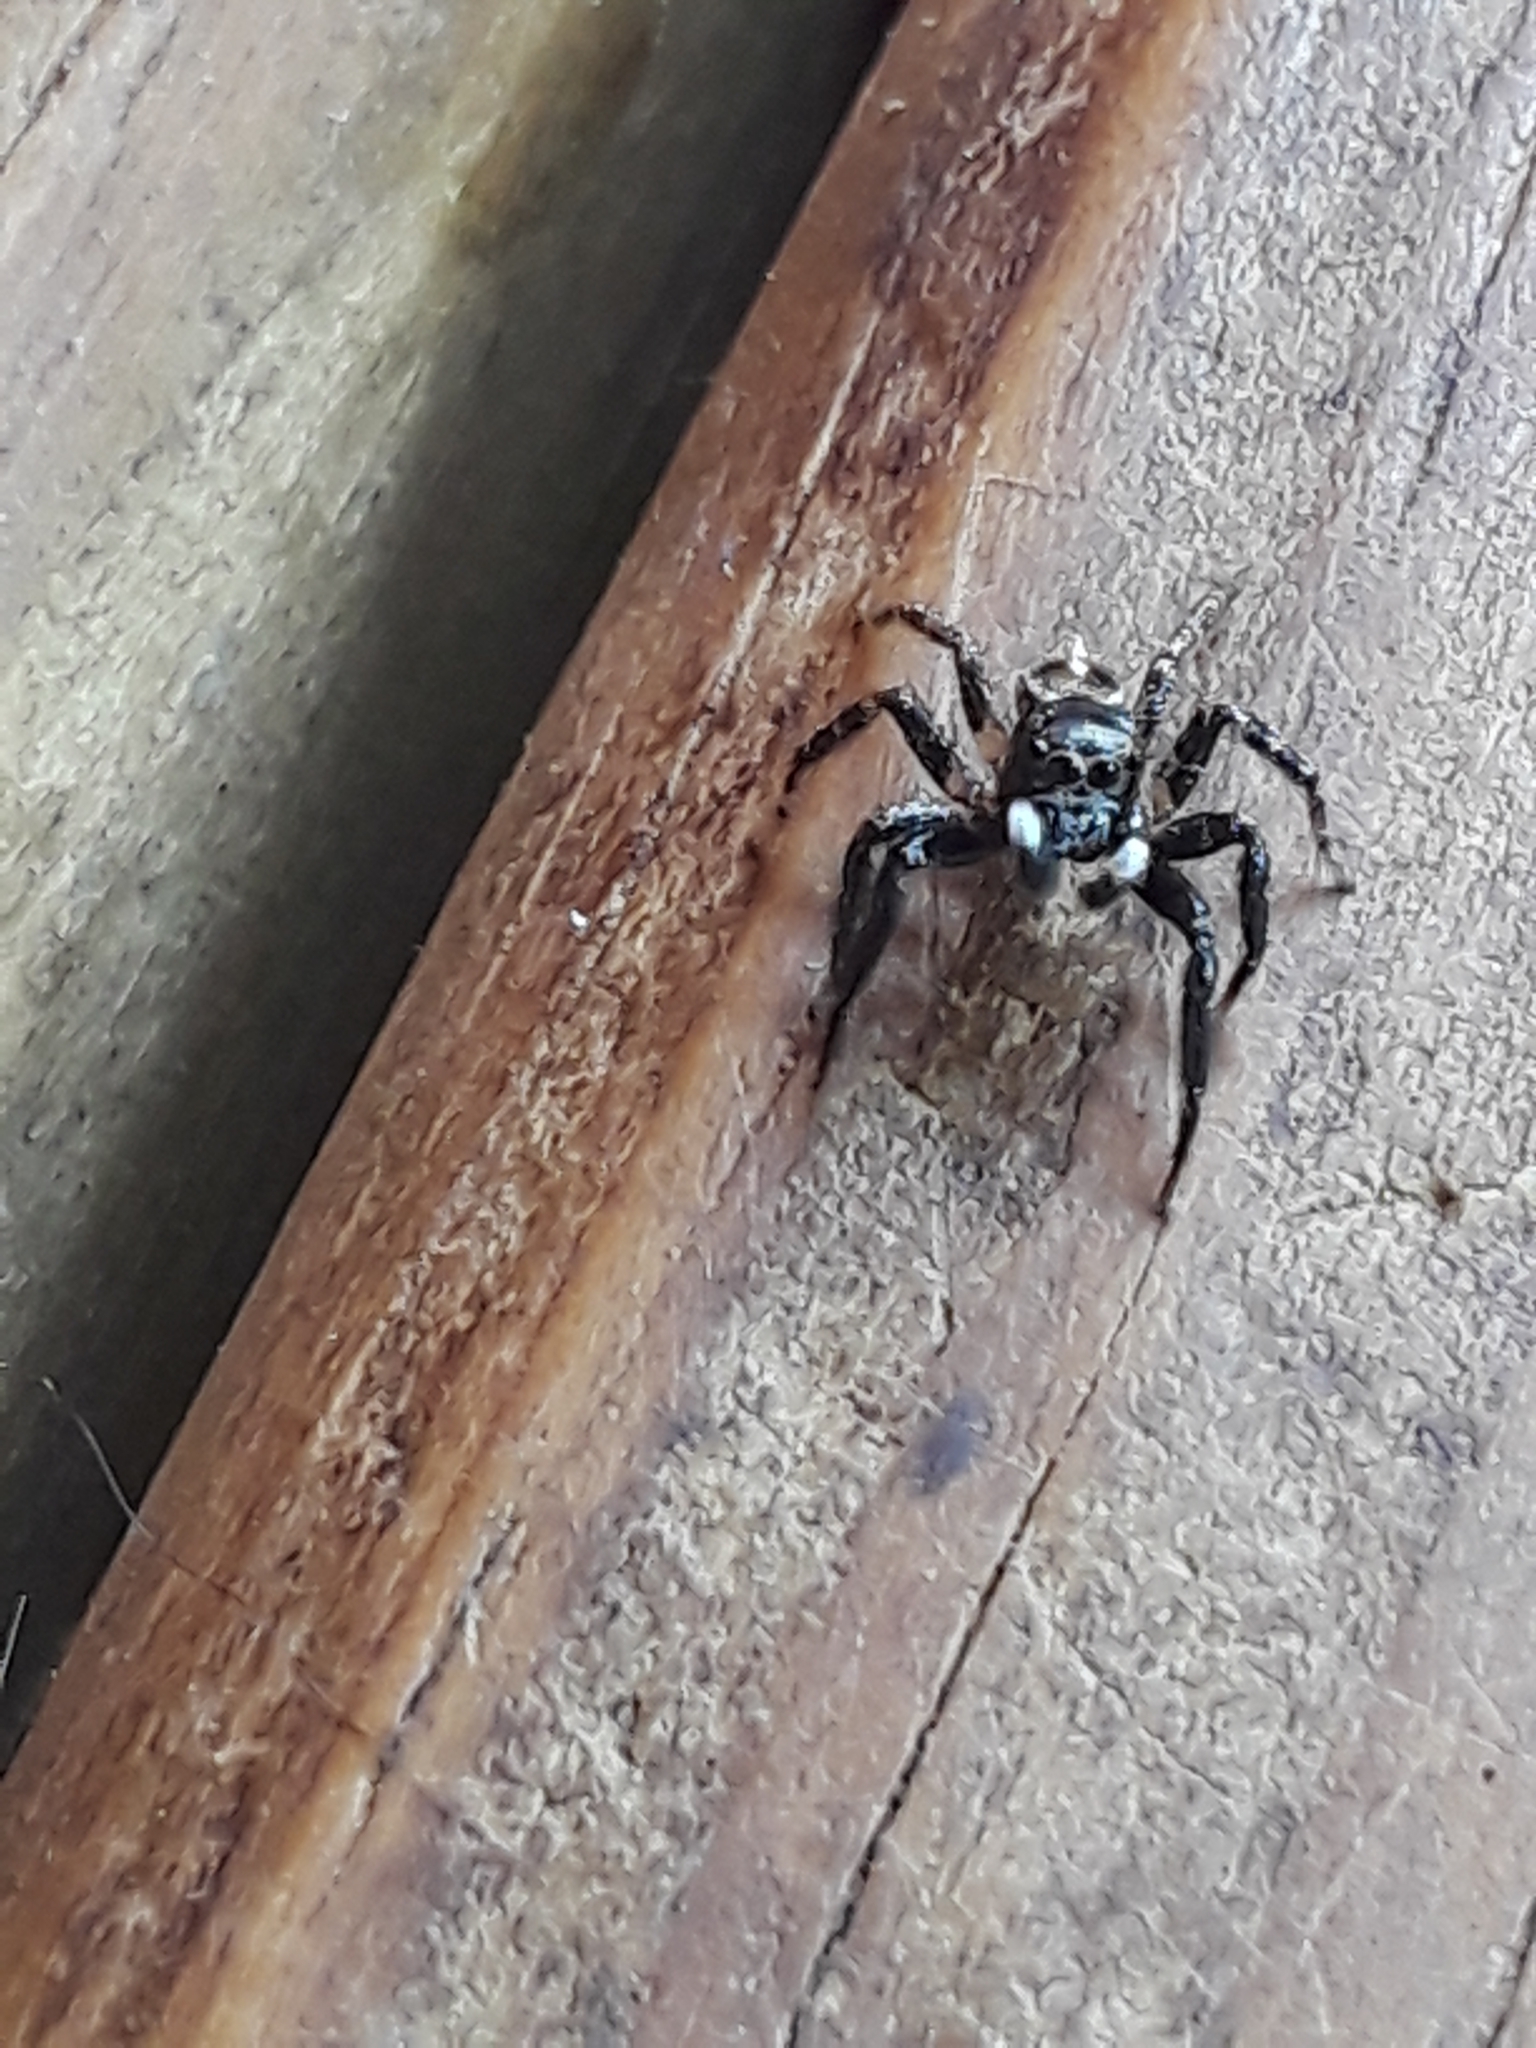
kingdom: Animalia
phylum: Arthropoda
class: Arachnida
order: Araneae
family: Salticidae
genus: Anasaitis
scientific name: Anasaitis canosa
